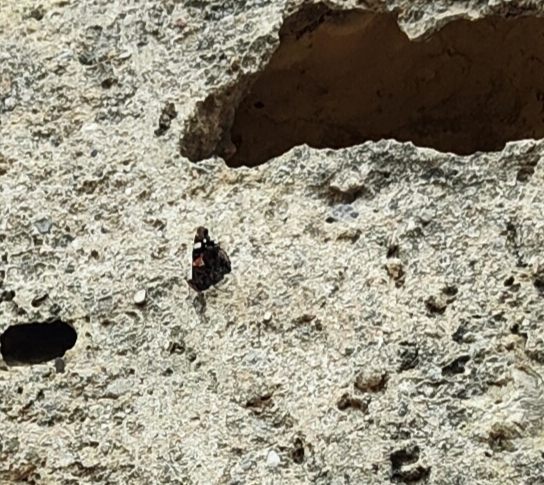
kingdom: Animalia
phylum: Arthropoda
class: Insecta
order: Lepidoptera
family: Nymphalidae
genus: Vanessa
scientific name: Vanessa atalanta
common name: Red admiral
